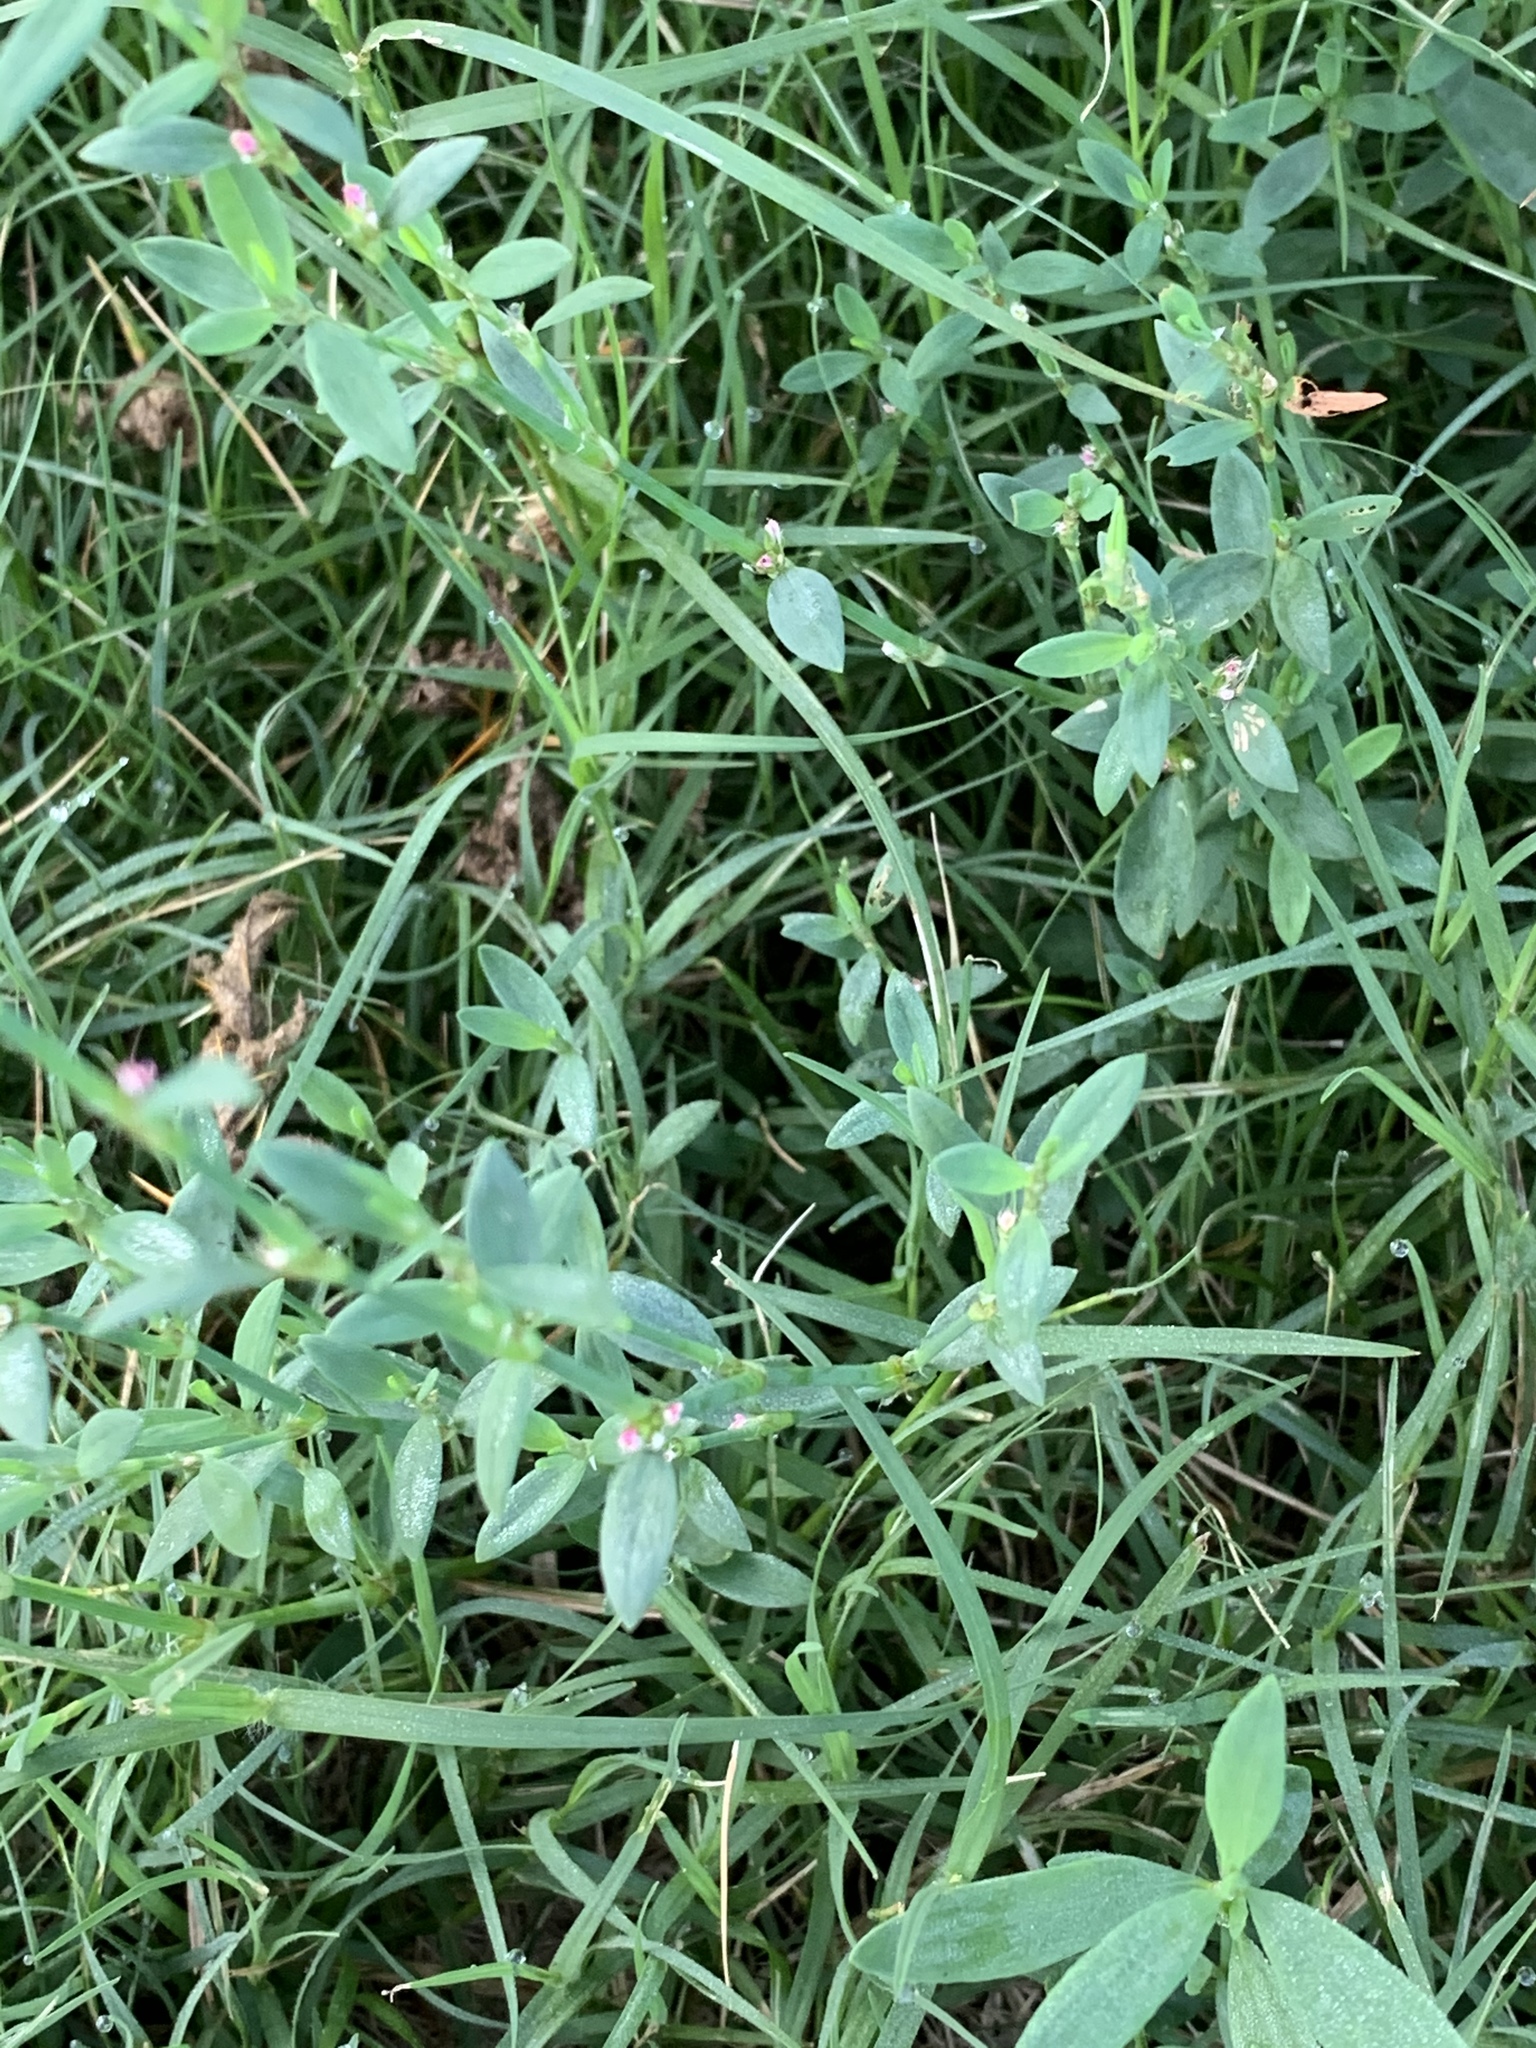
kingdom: Plantae
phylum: Tracheophyta
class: Magnoliopsida
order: Caryophyllales
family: Polygonaceae
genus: Polygonum
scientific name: Polygonum aviculare
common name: Prostrate knotweed
